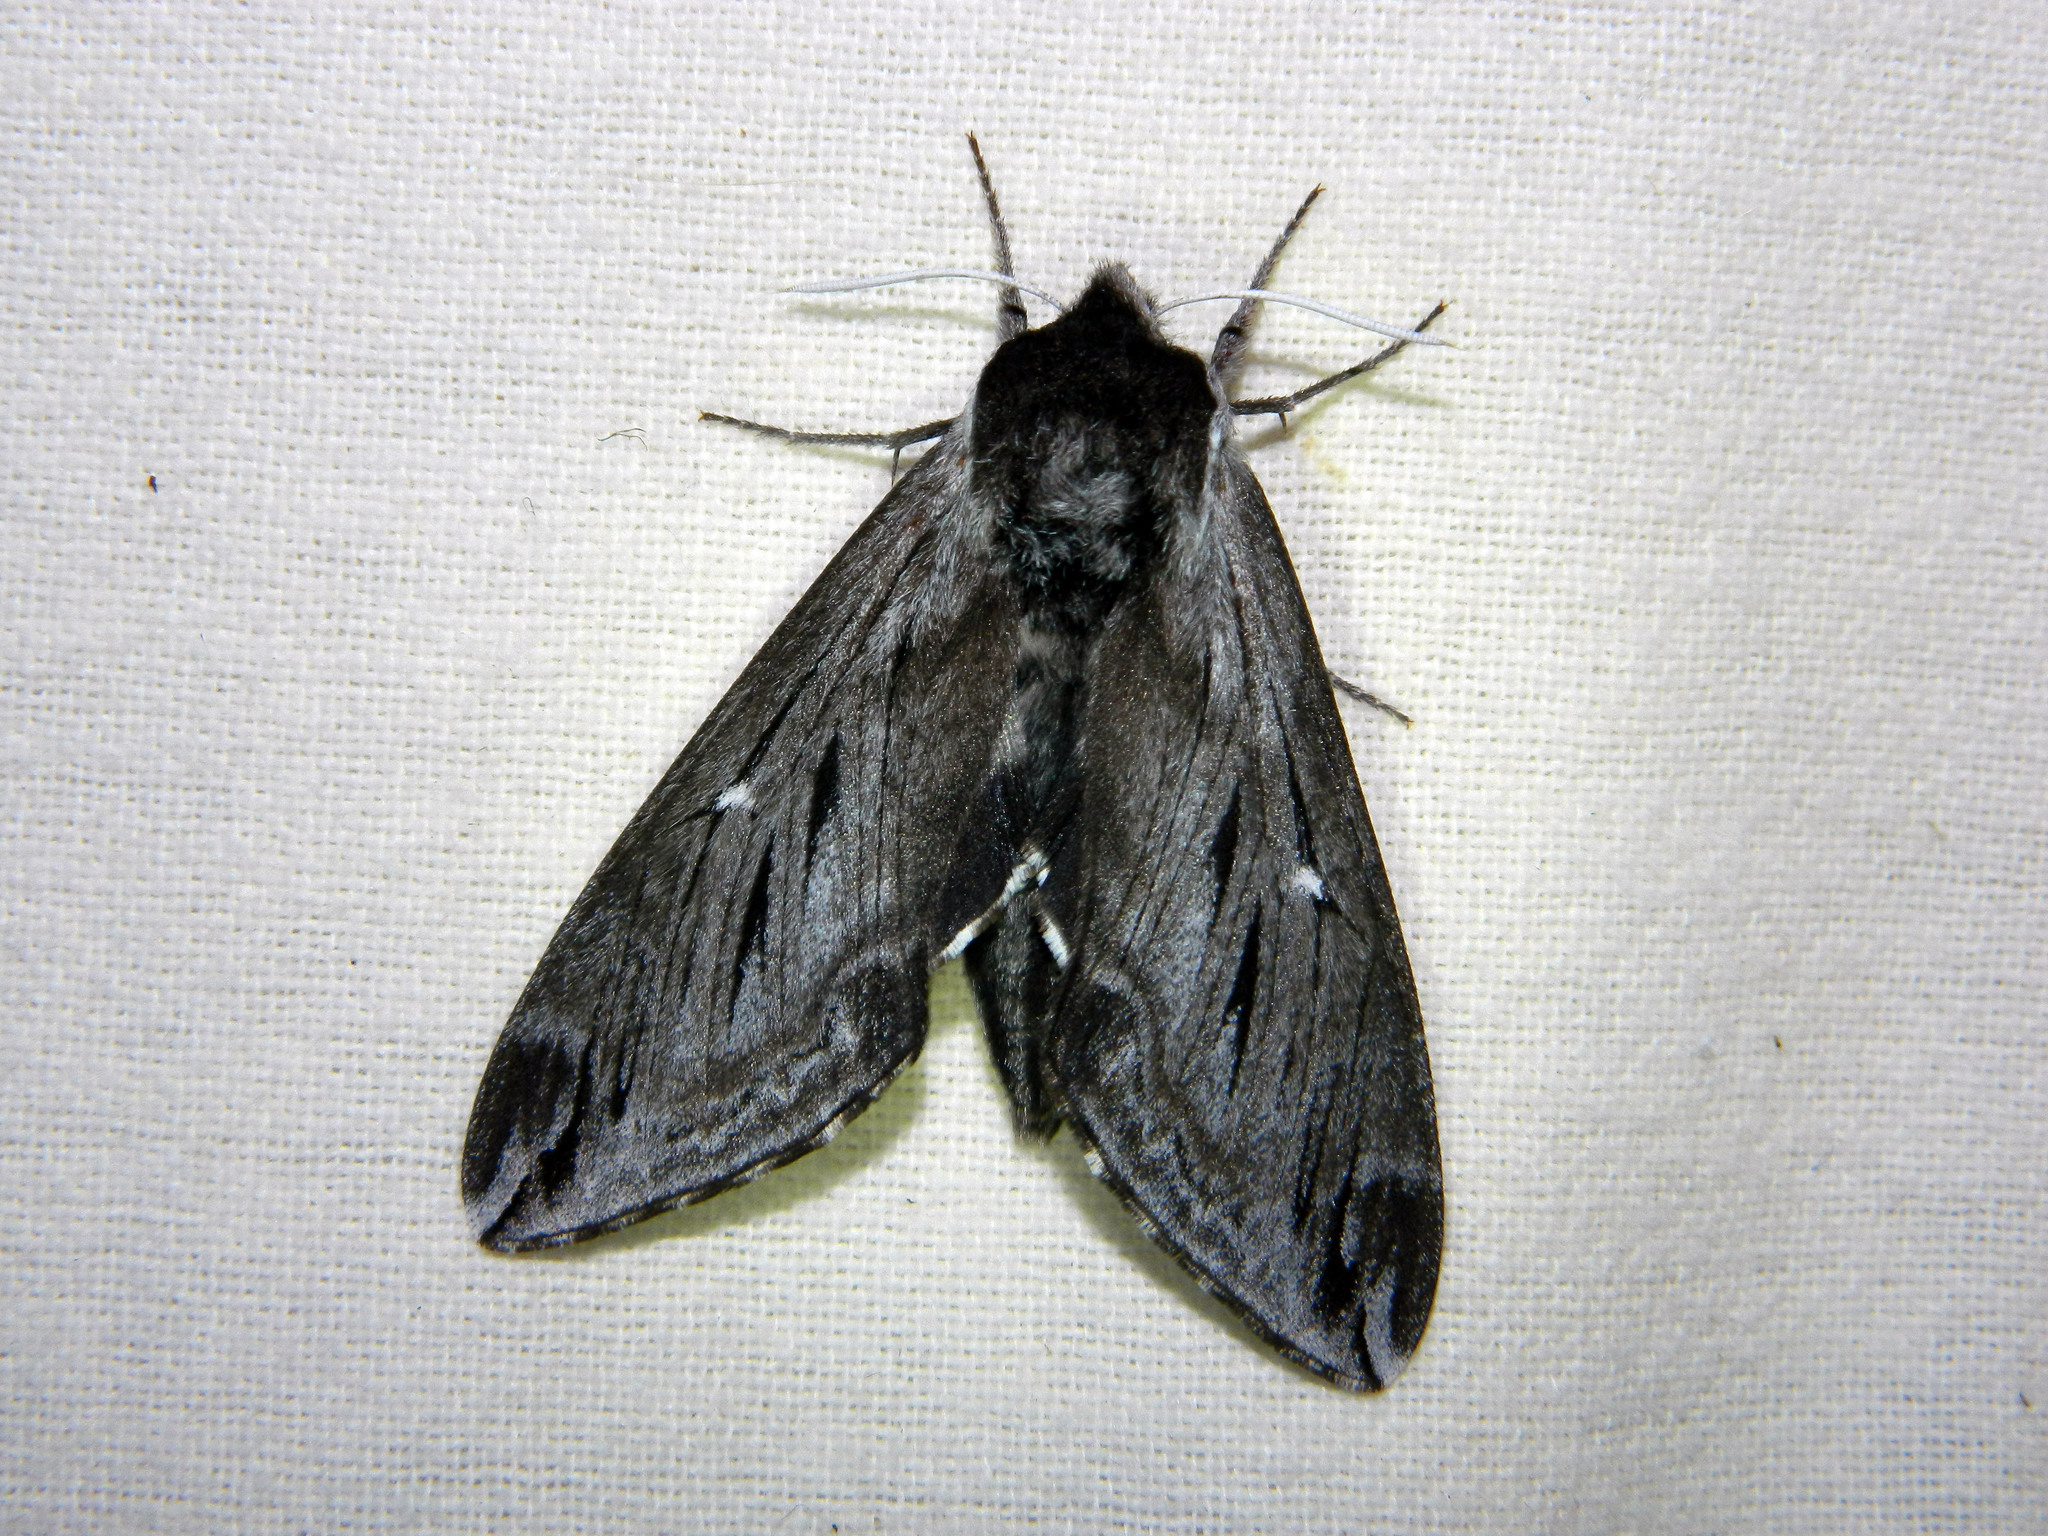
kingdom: Animalia
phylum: Arthropoda
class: Insecta
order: Lepidoptera
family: Sphingidae
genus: Sphinx
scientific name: Sphinx poecila
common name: Northern apple sphinx
